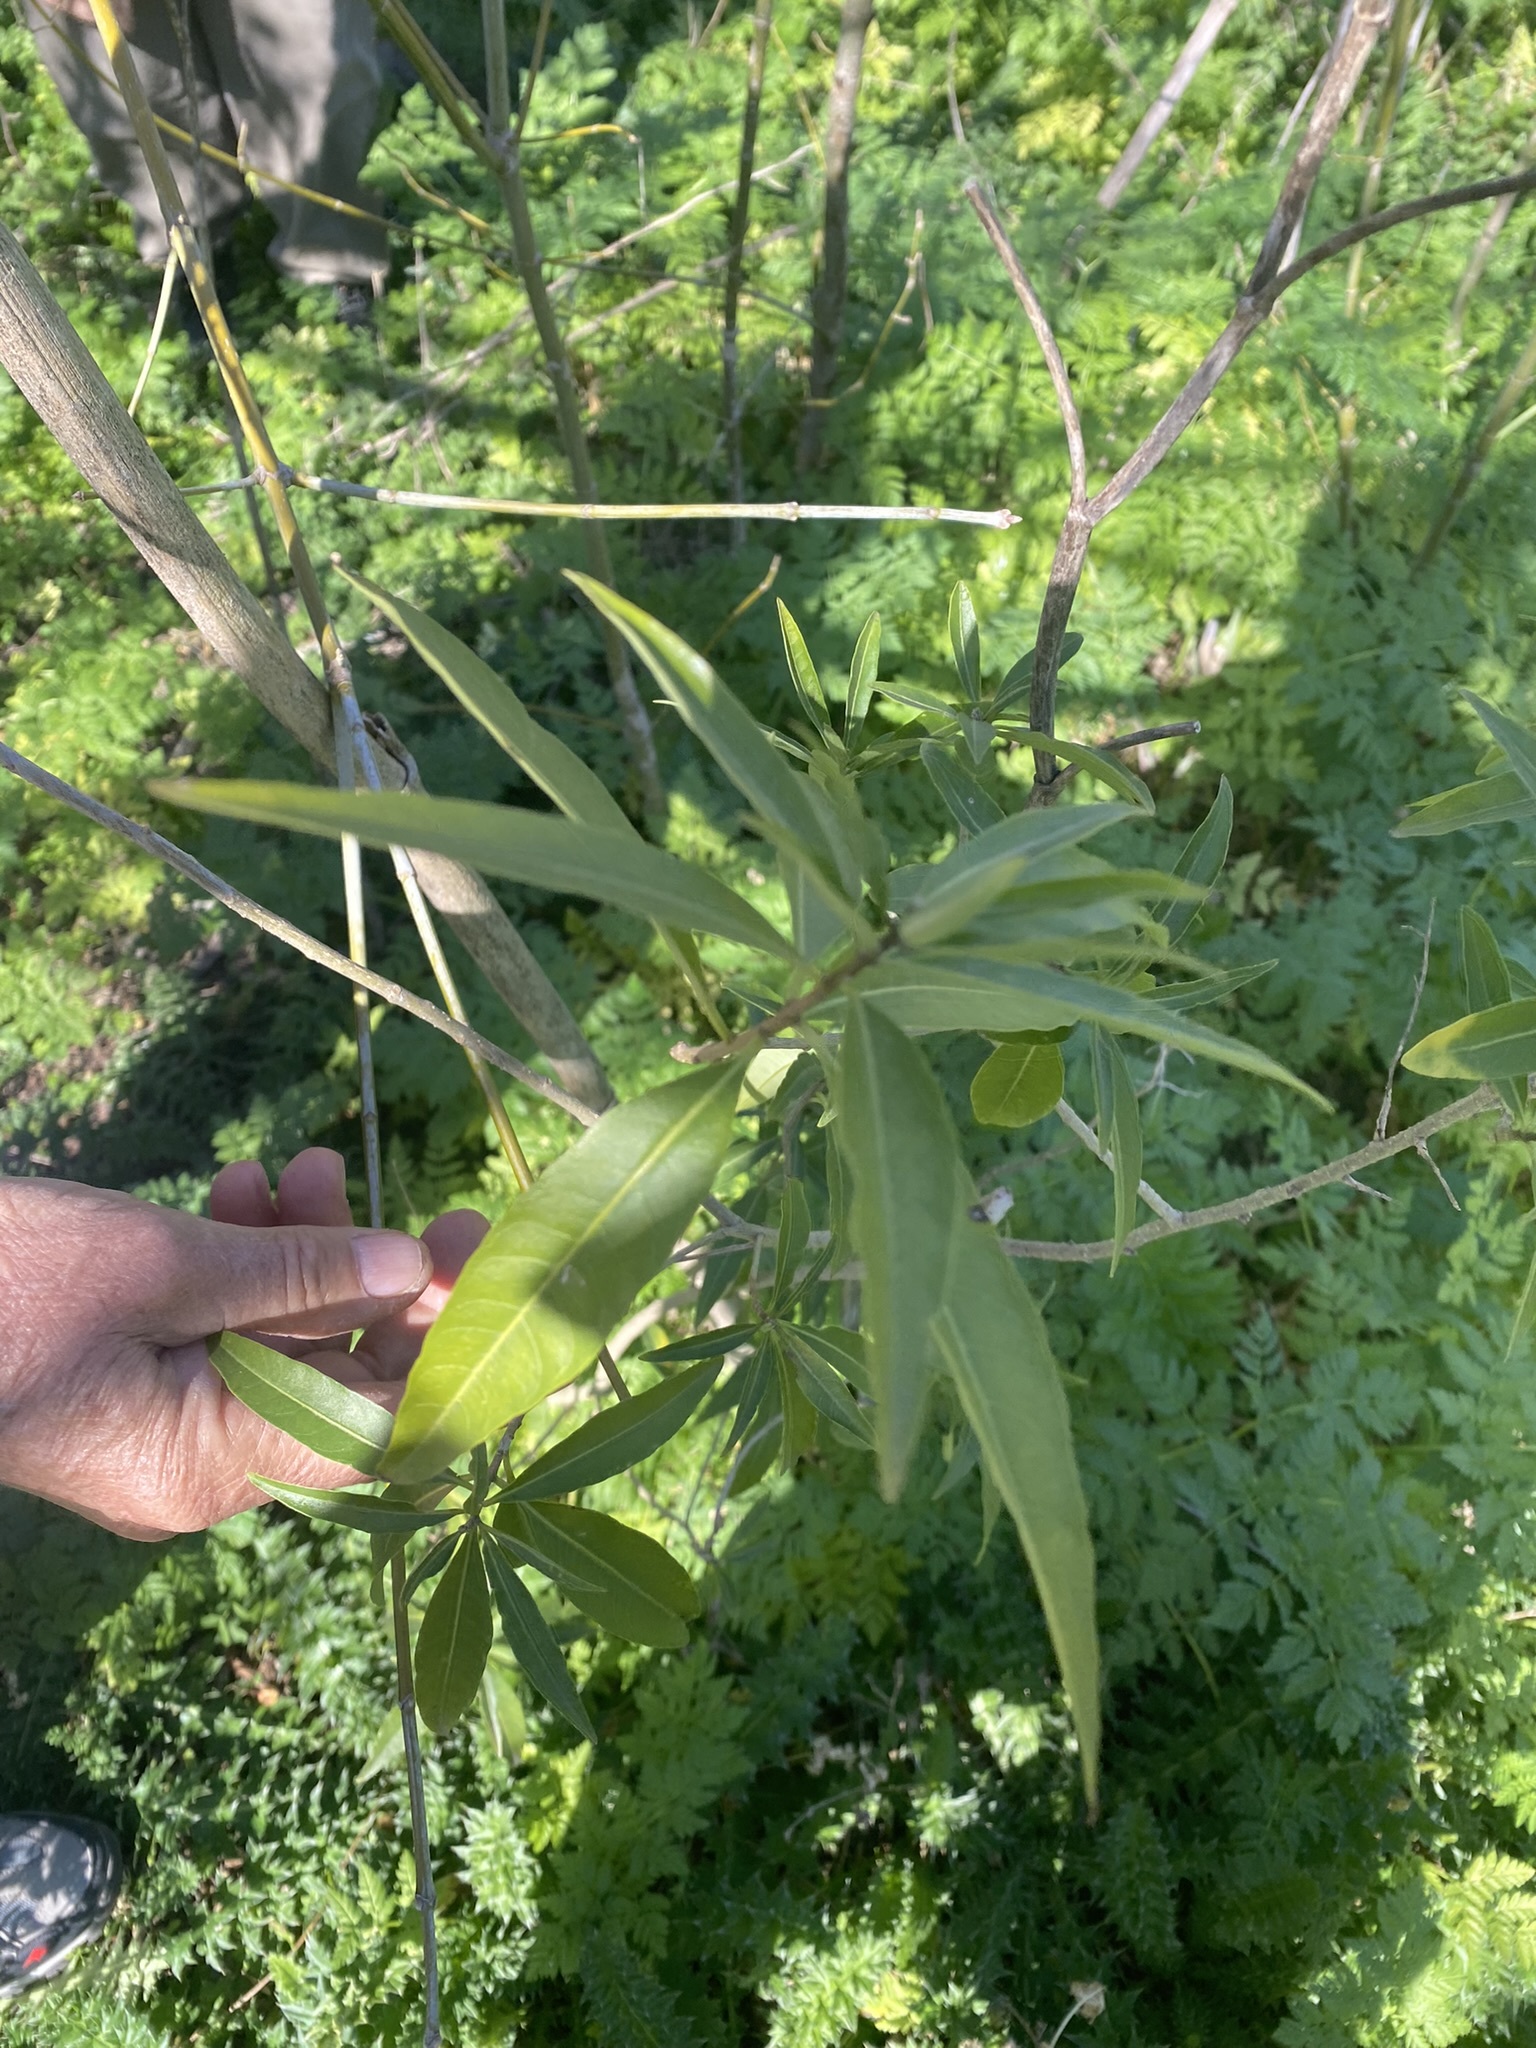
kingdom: Plantae
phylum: Tracheophyta
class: Magnoliopsida
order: Solanales
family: Solanaceae
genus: Cestrum
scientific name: Cestrum parqui
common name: Chilean cestrum
